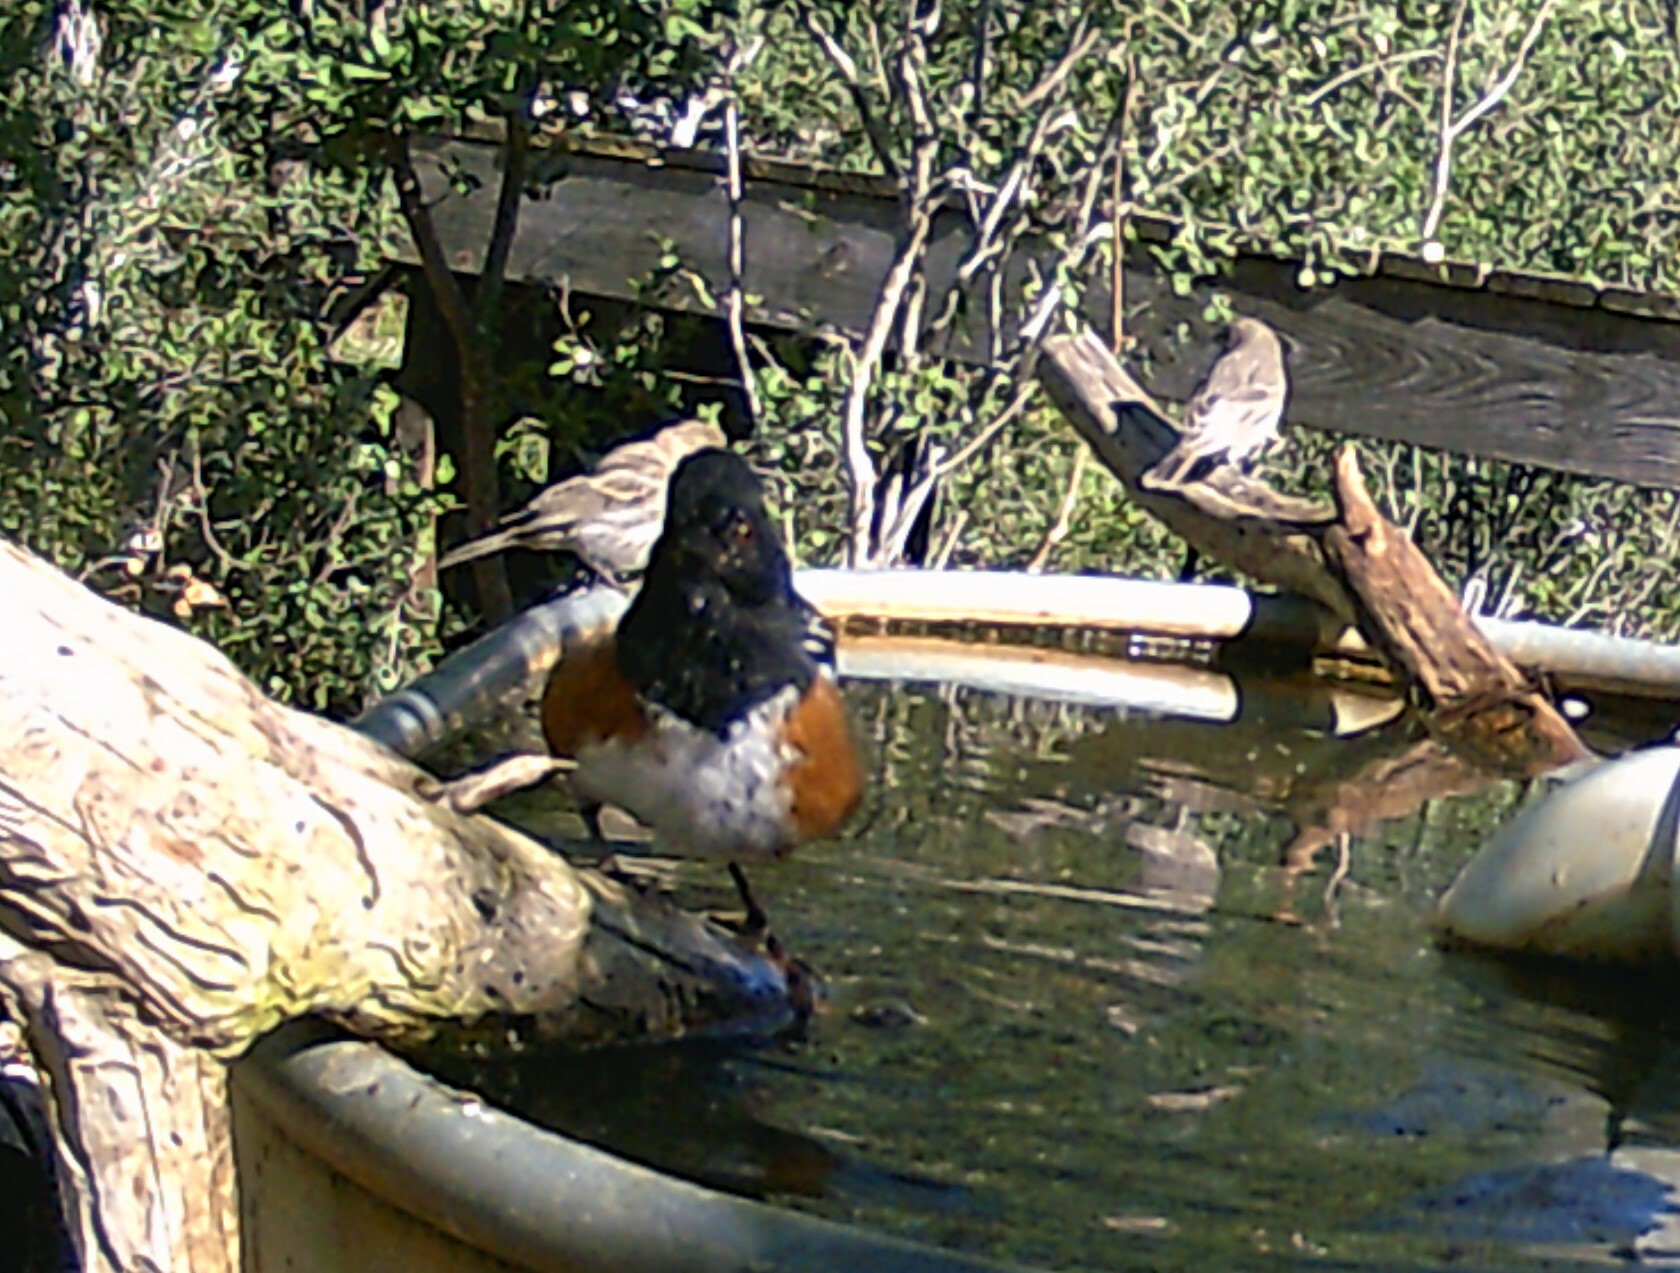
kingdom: Animalia
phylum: Chordata
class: Aves
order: Passeriformes
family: Passerellidae
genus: Pipilo
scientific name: Pipilo maculatus
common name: Spotted towhee
